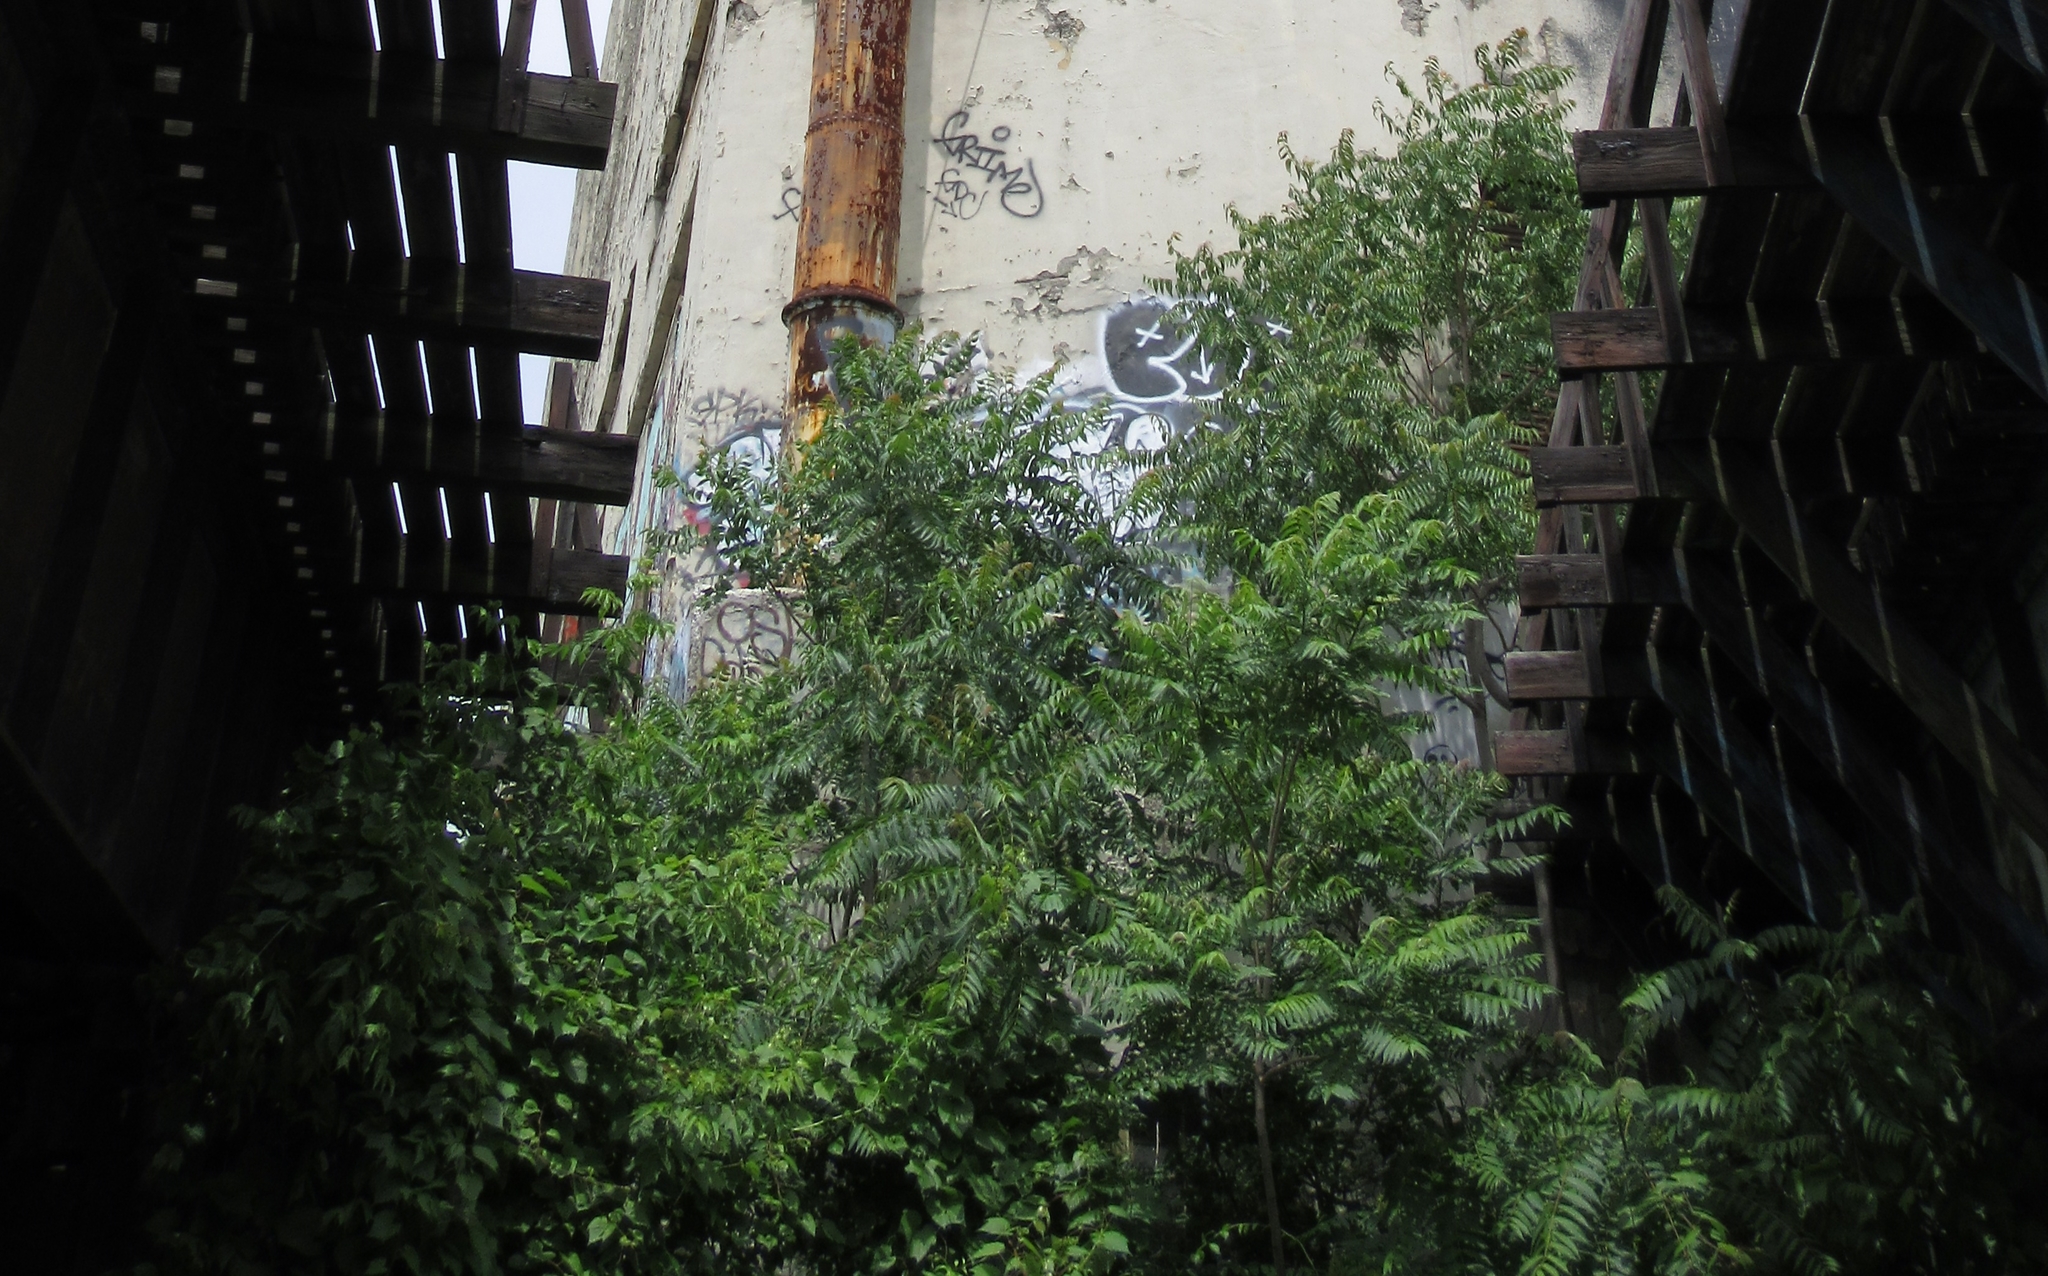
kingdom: Plantae
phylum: Tracheophyta
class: Magnoliopsida
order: Sapindales
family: Simaroubaceae
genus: Ailanthus
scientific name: Ailanthus altissima
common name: Tree-of-heaven
